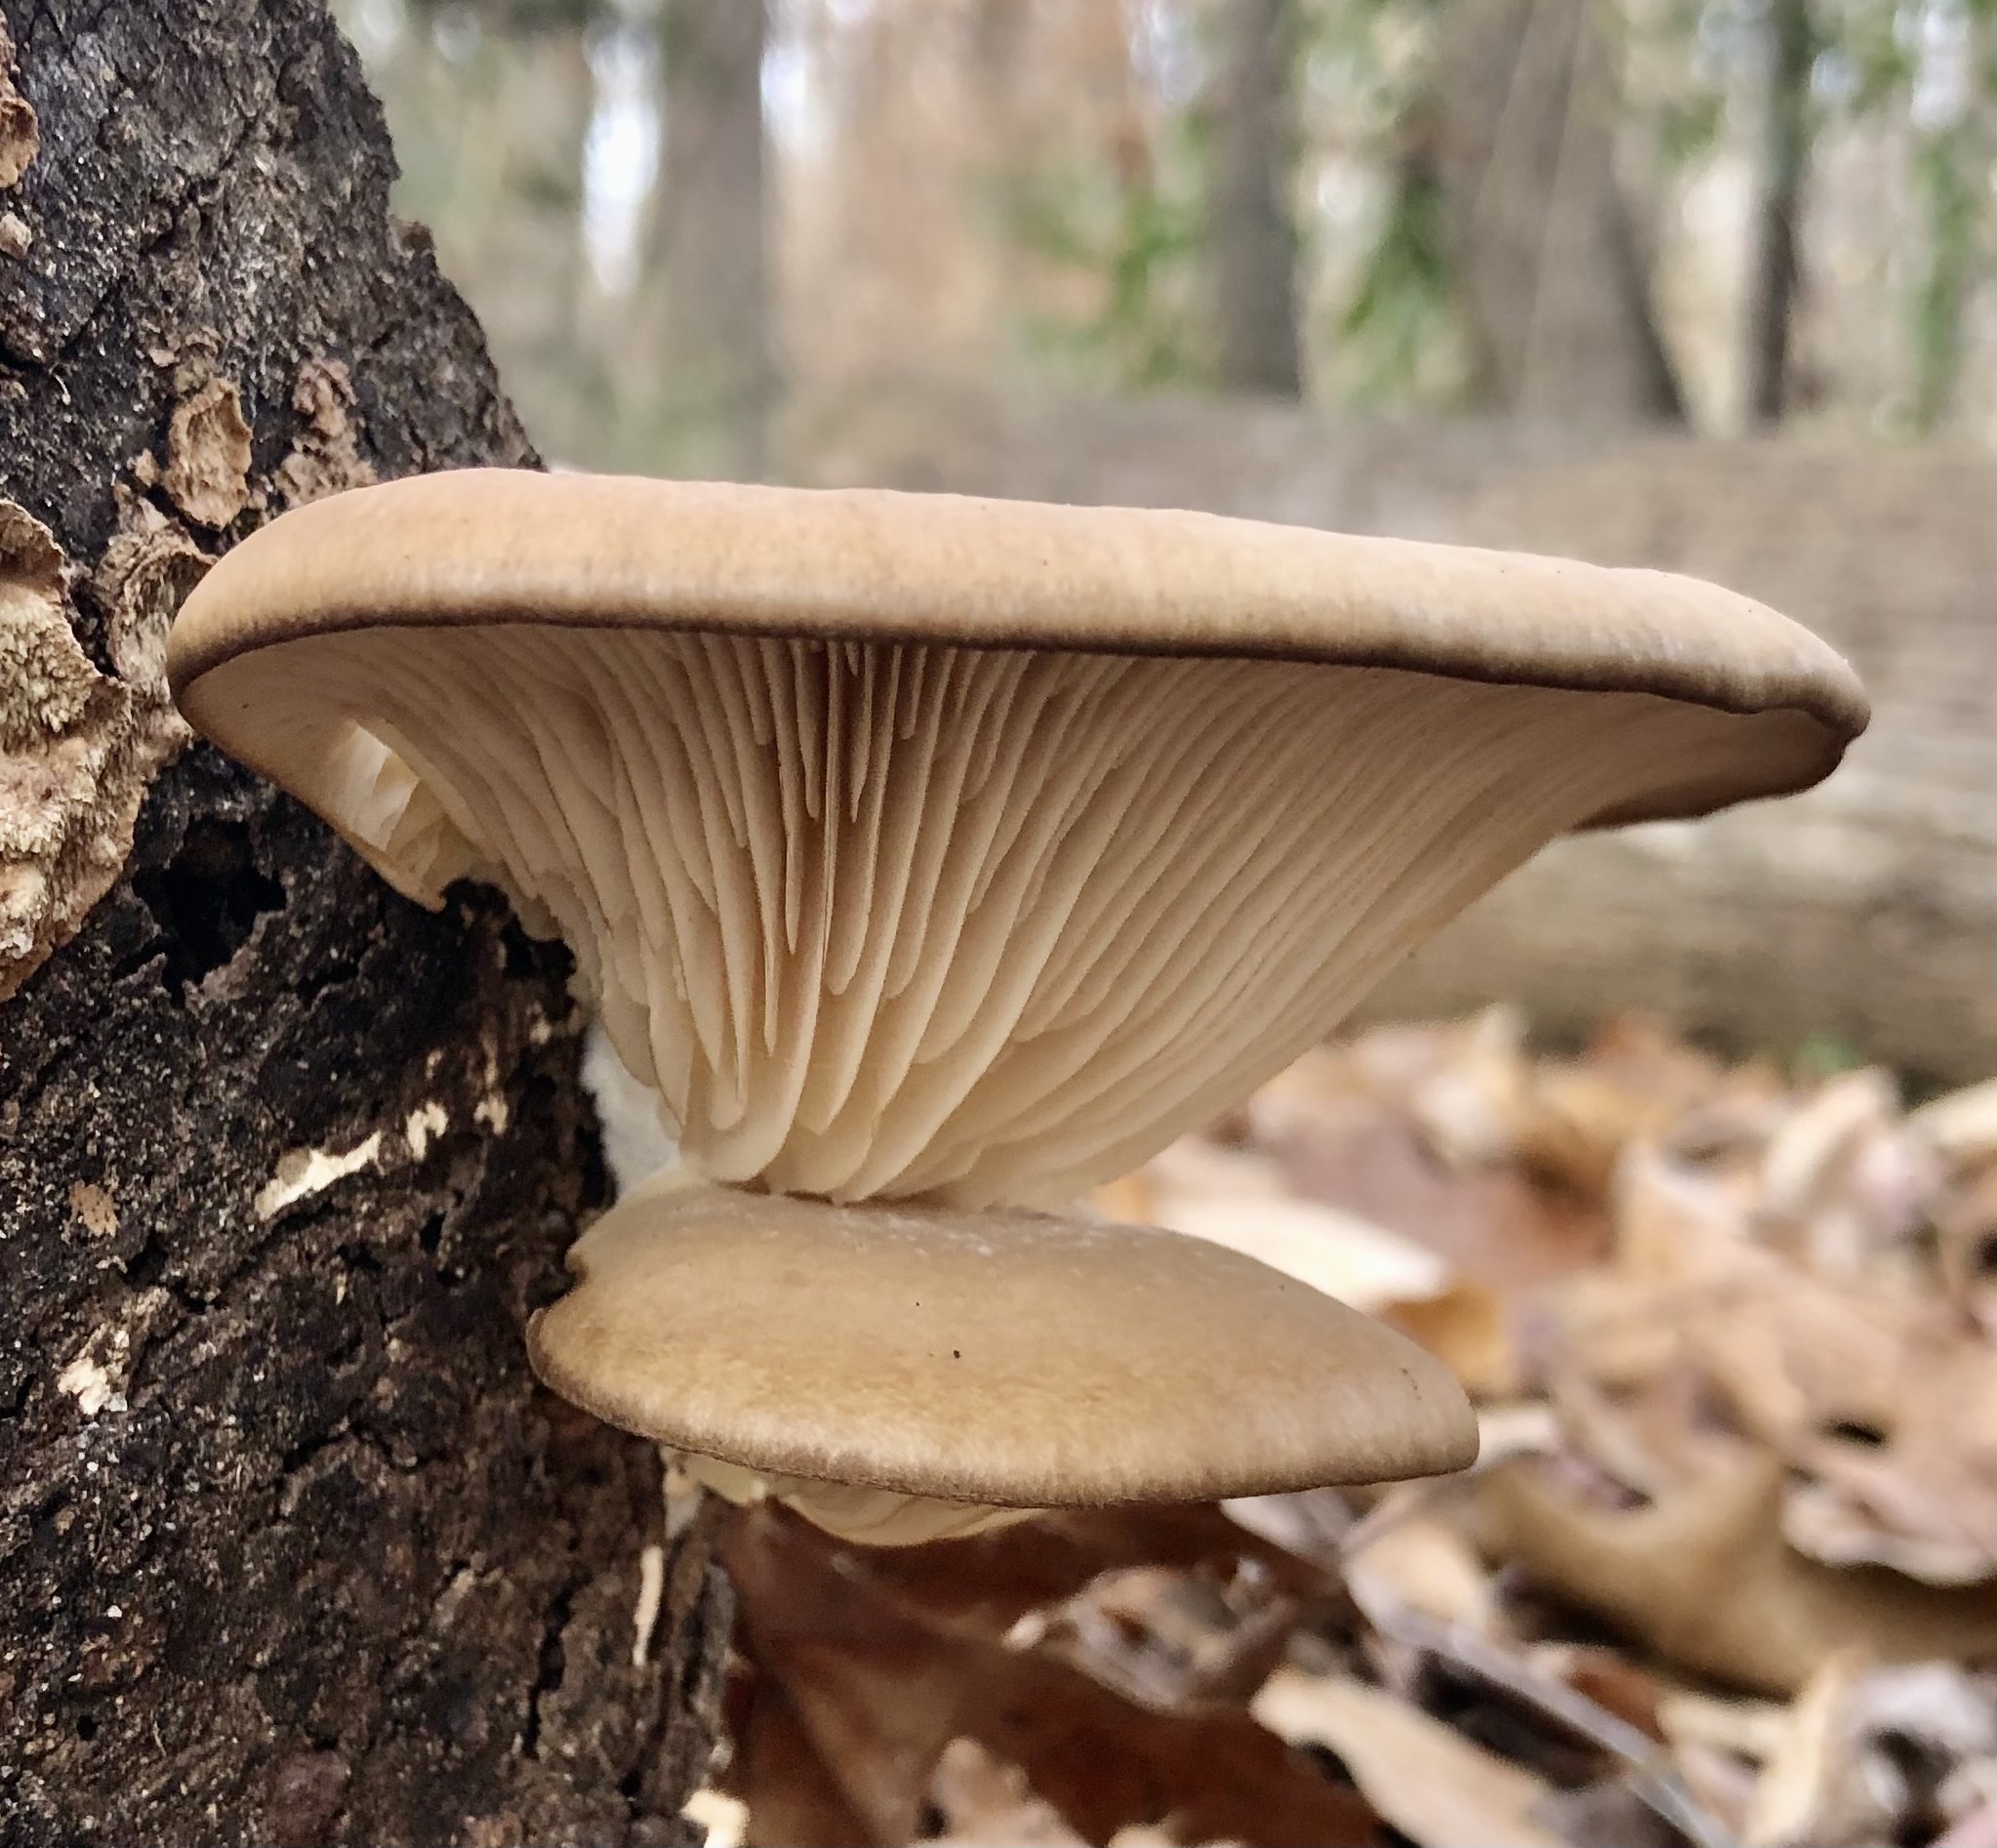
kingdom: Fungi
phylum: Basidiomycota
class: Agaricomycetes
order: Agaricales
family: Pleurotaceae
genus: Pleurotus
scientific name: Pleurotus ostreatus
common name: Oyster mushroom
